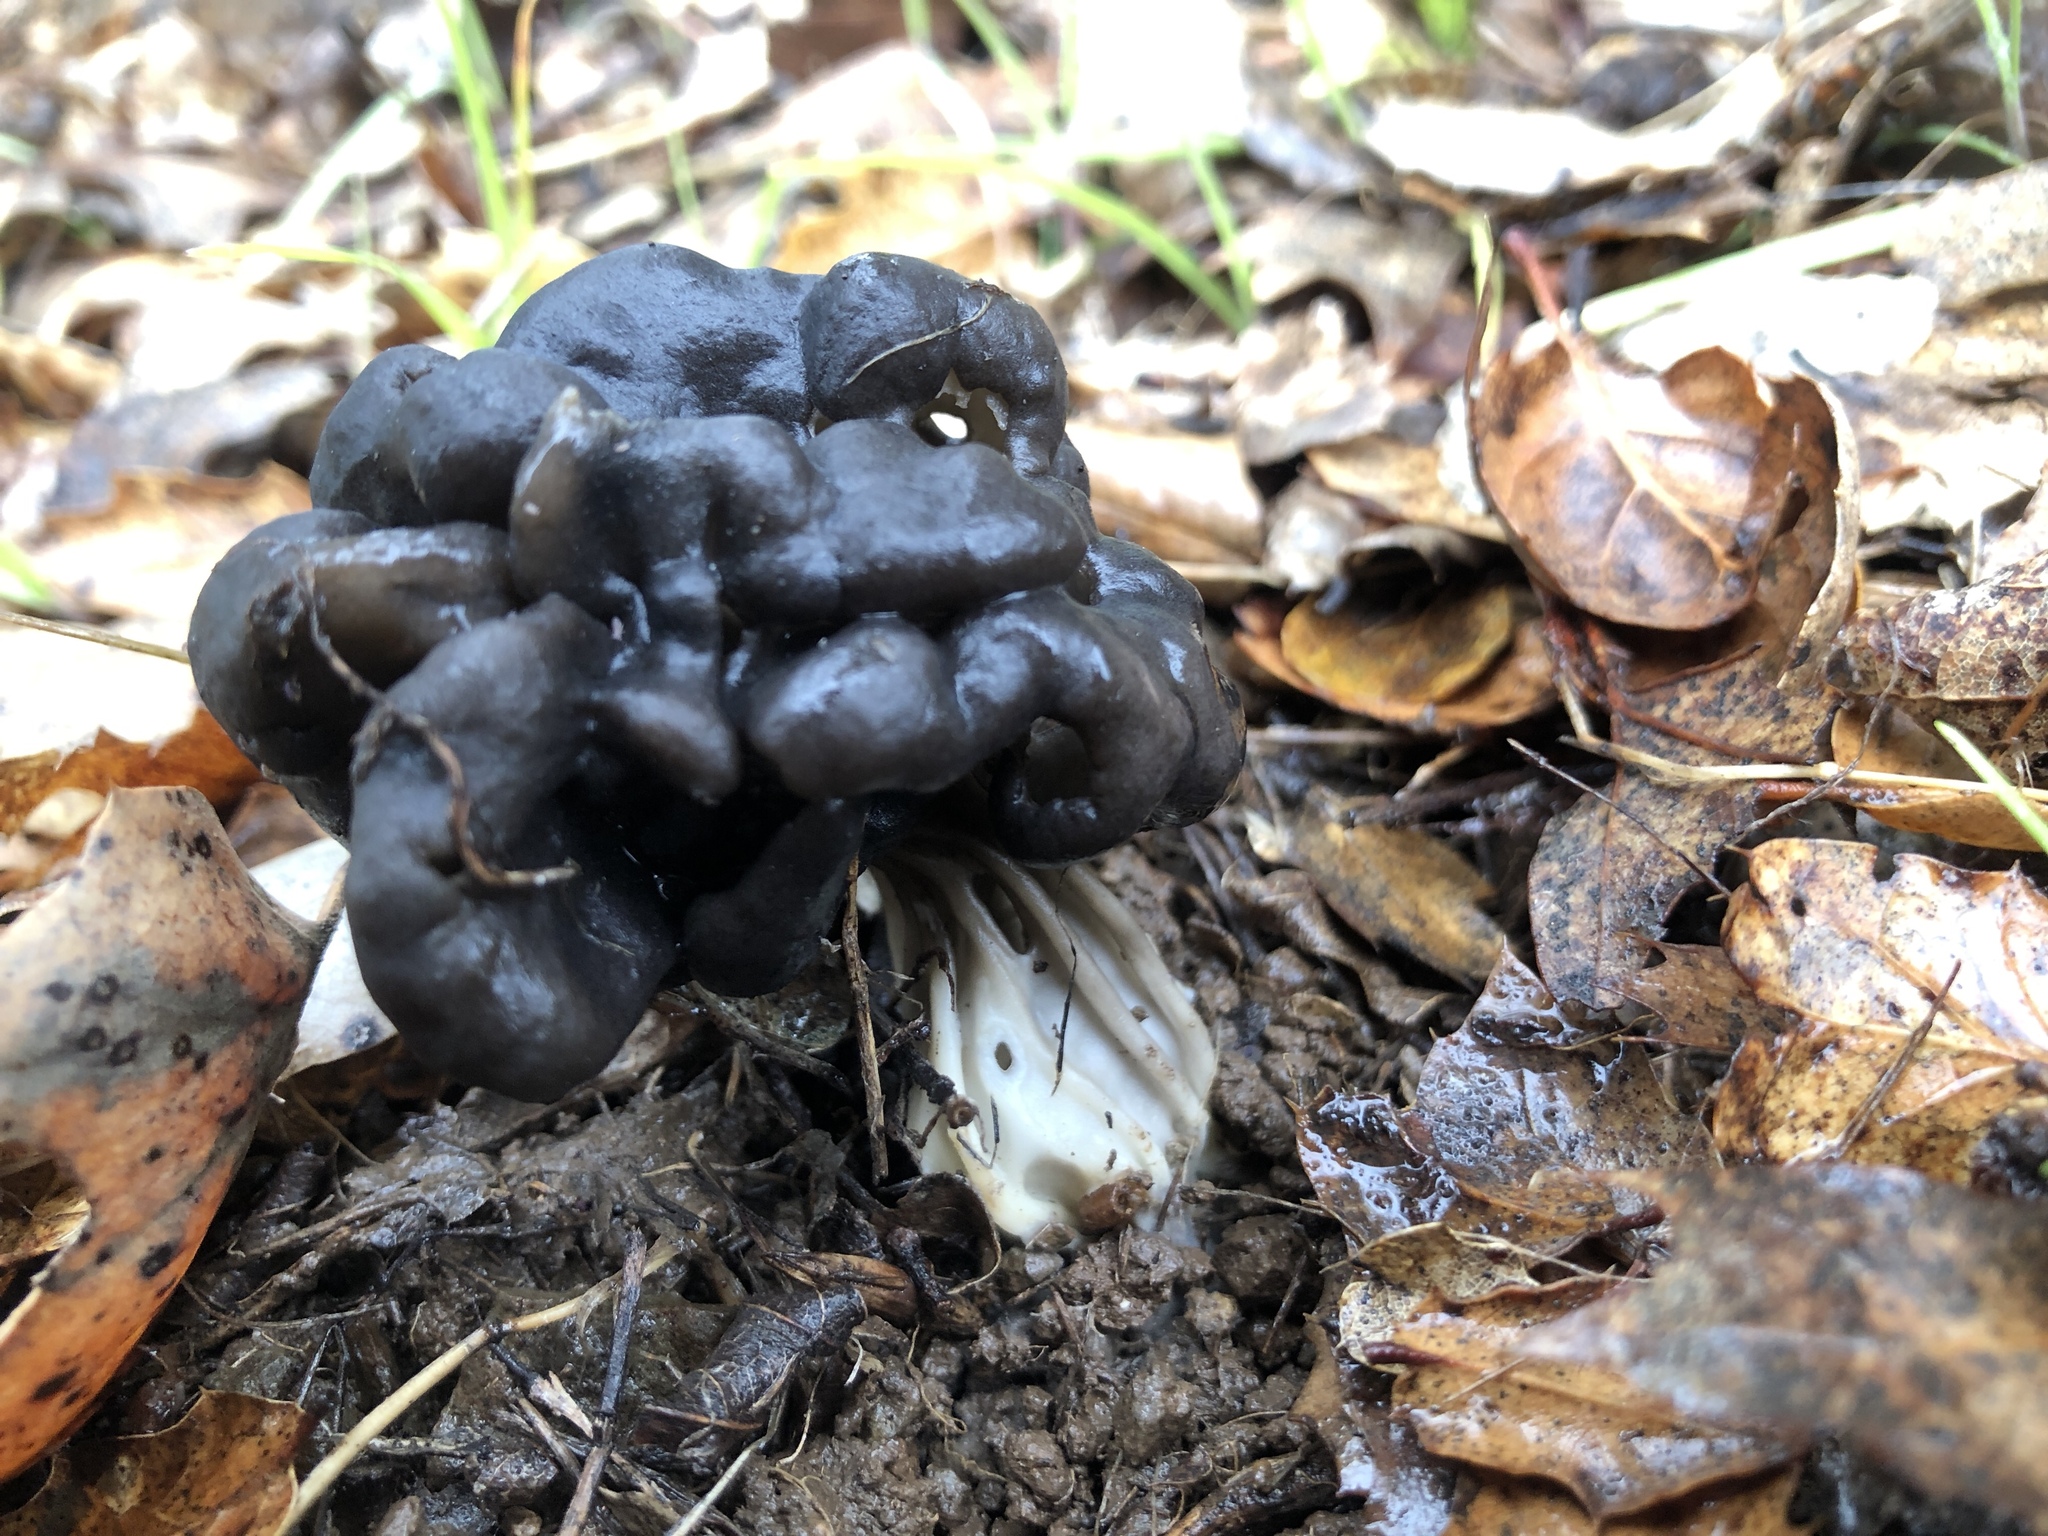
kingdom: Fungi
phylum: Ascomycota
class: Pezizomycetes
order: Pezizales
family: Helvellaceae
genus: Helvella
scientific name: Helvella dryophila
